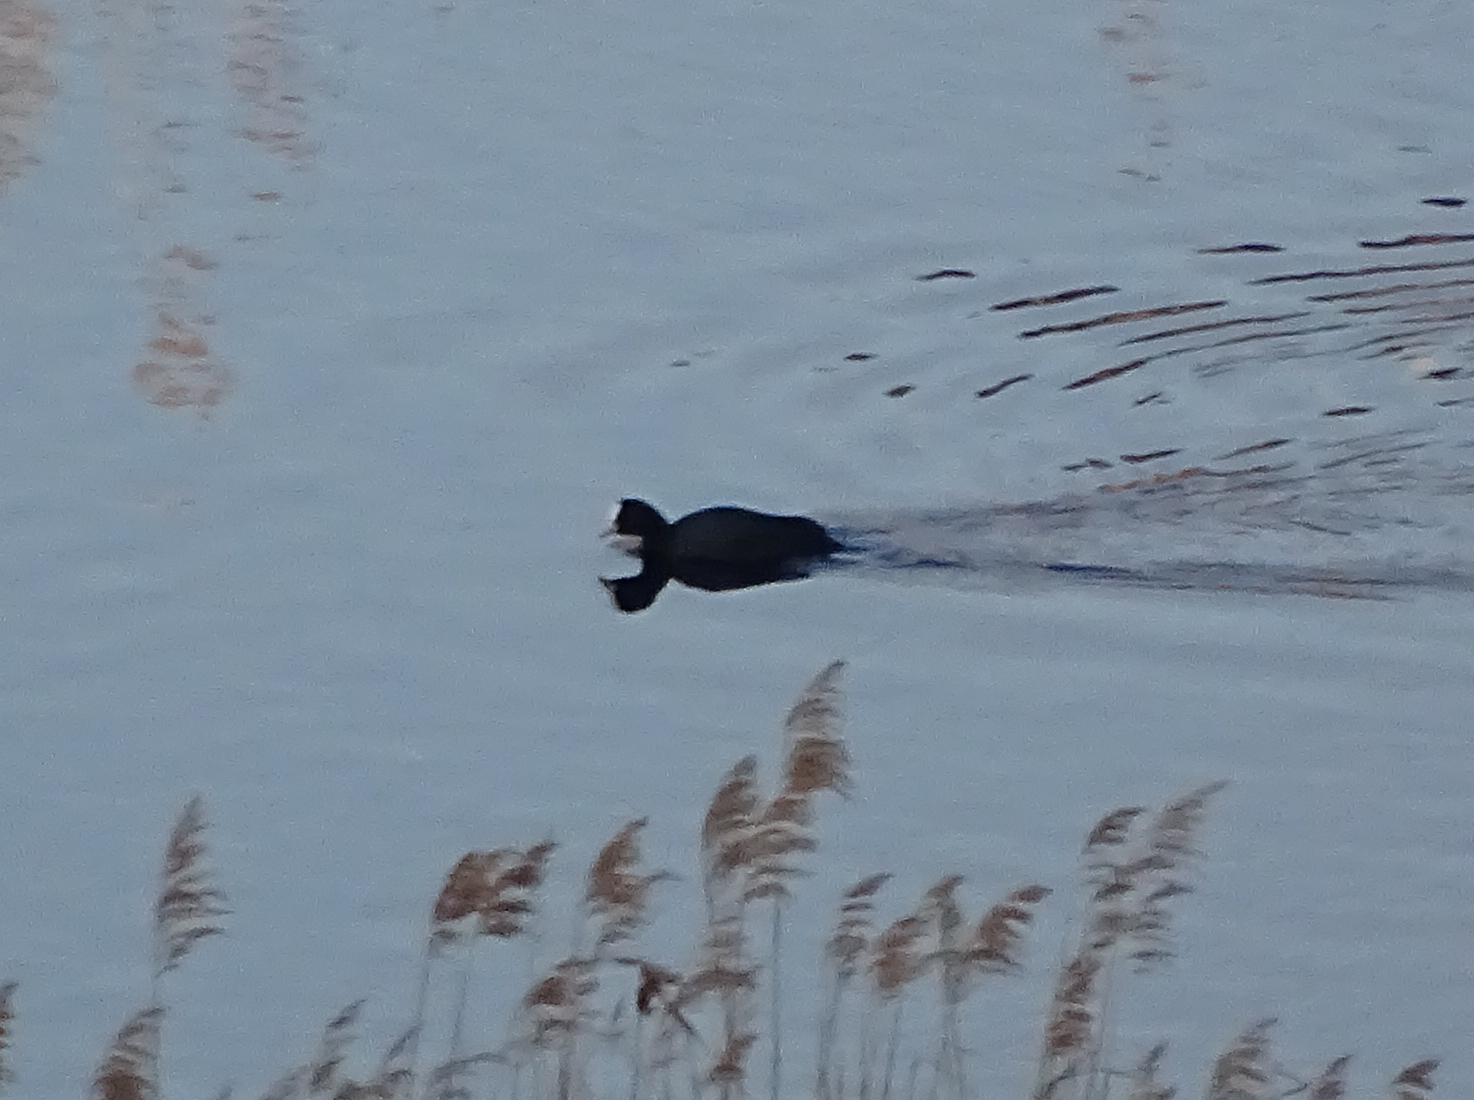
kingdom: Animalia
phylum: Chordata
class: Aves
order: Gruiformes
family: Rallidae
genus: Fulica
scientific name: Fulica atra
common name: Eurasian coot
